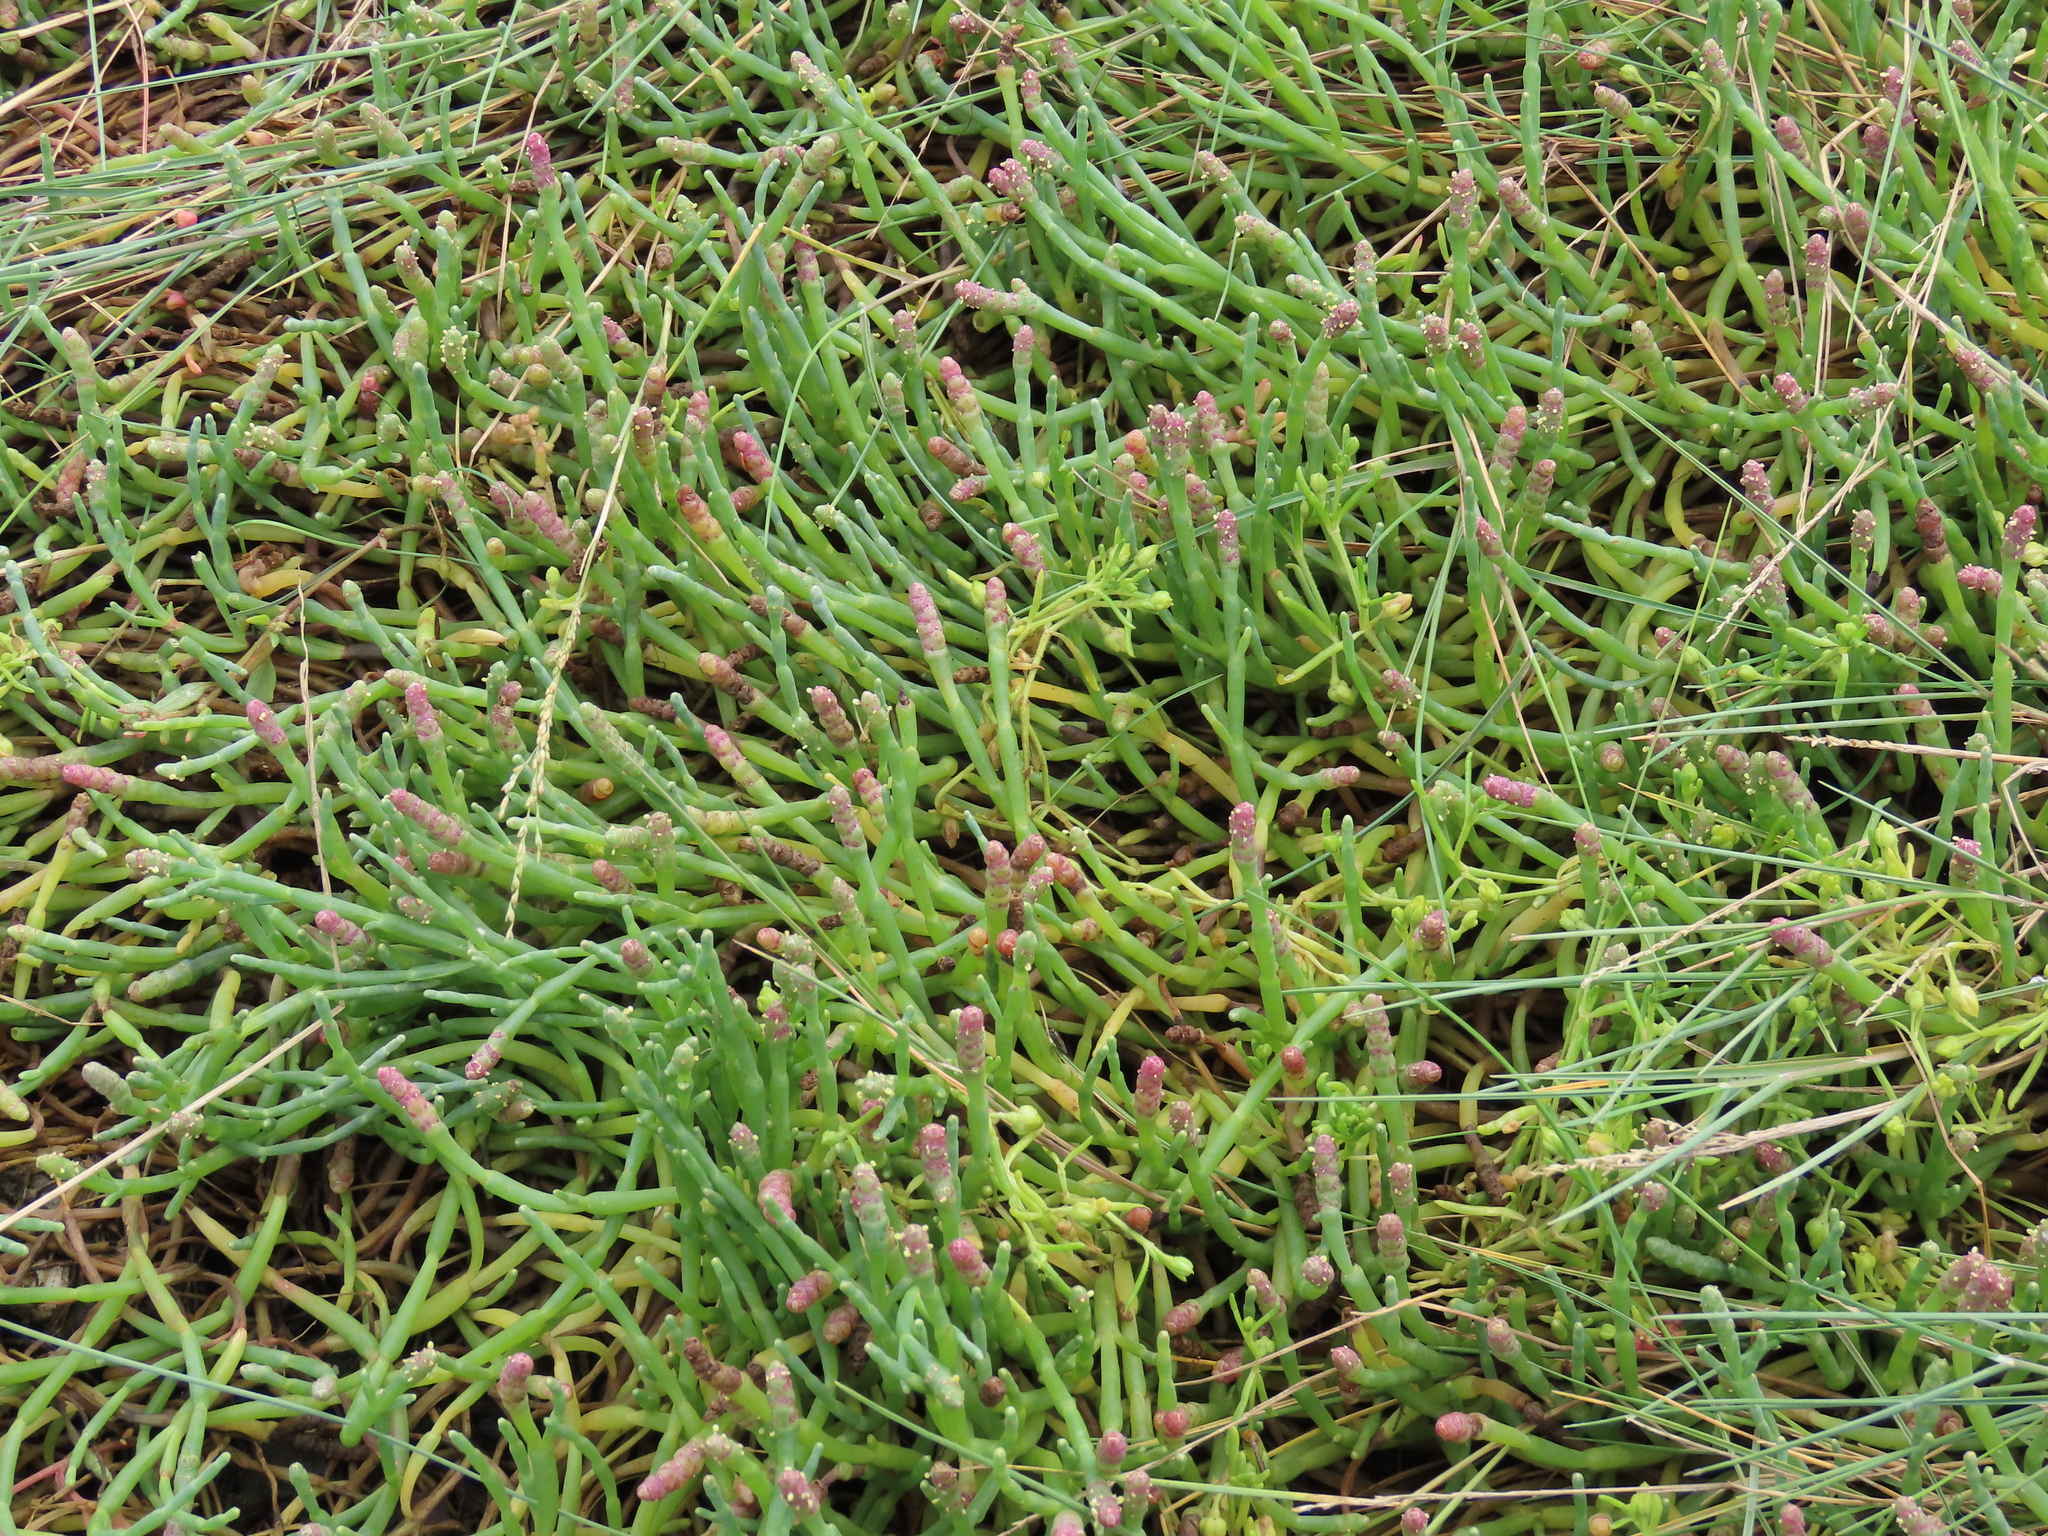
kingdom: Plantae
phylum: Tracheophyta
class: Magnoliopsida
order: Caryophyllales
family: Amaranthaceae
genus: Salicornia
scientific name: Salicornia perennis
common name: Chicken claws
